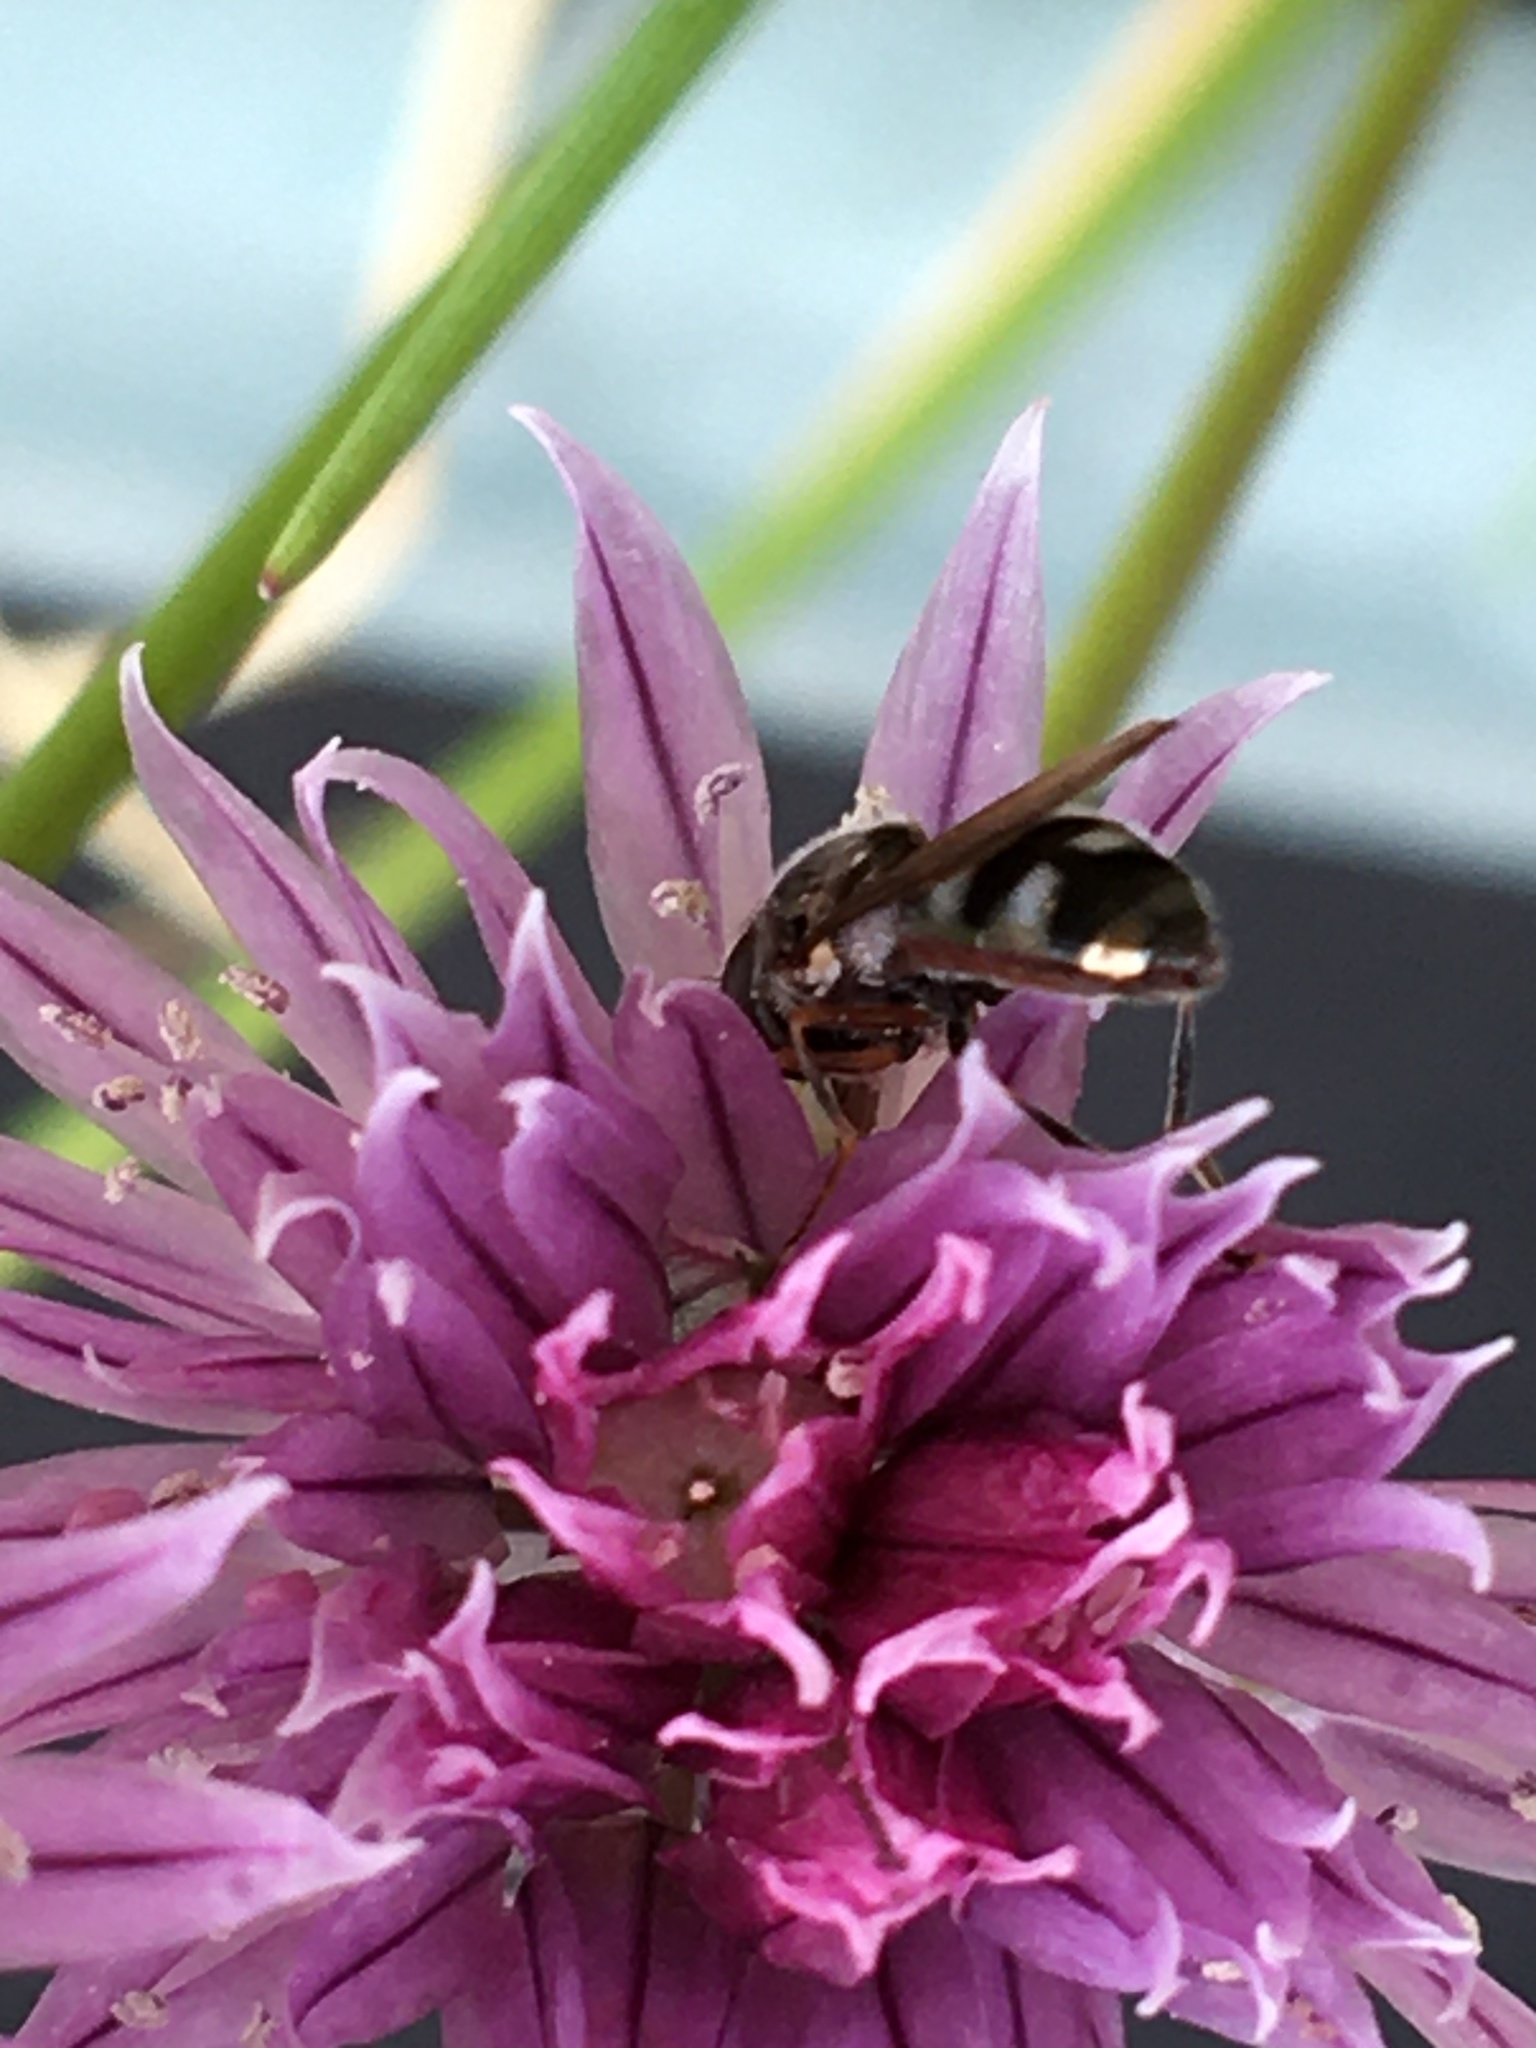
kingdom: Animalia
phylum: Arthropoda
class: Insecta
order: Diptera
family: Syrphidae
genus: Platycheirus
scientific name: Platycheirus
